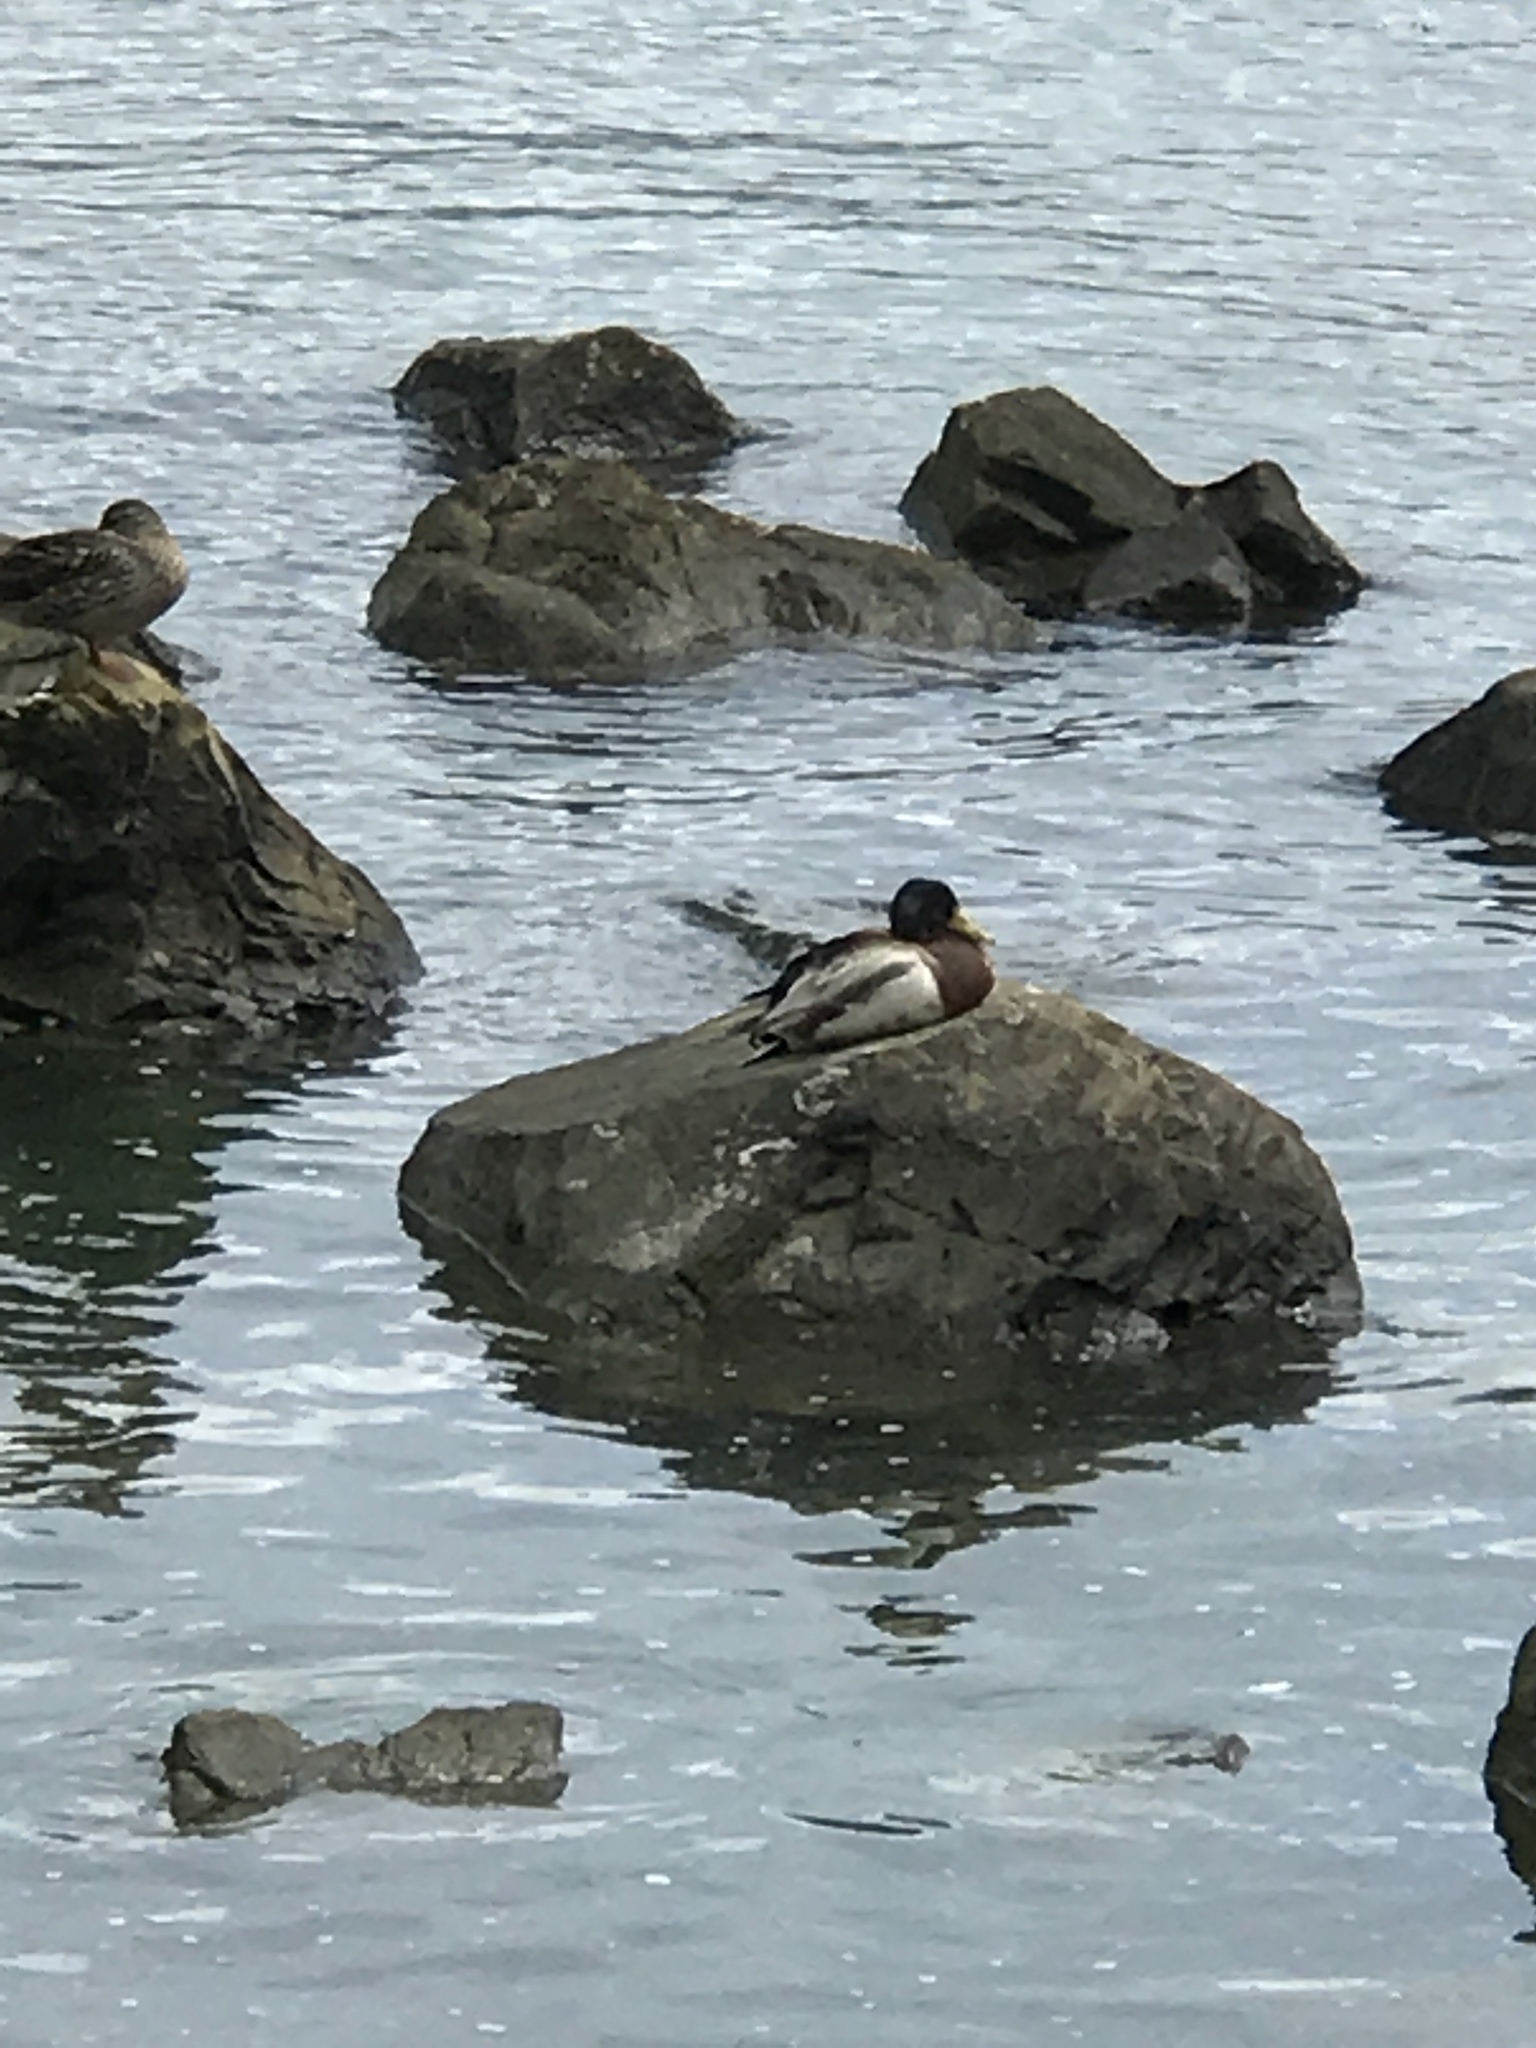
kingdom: Animalia
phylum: Chordata
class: Aves
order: Anseriformes
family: Anatidae
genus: Anas
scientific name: Anas platyrhynchos
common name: Mallard
